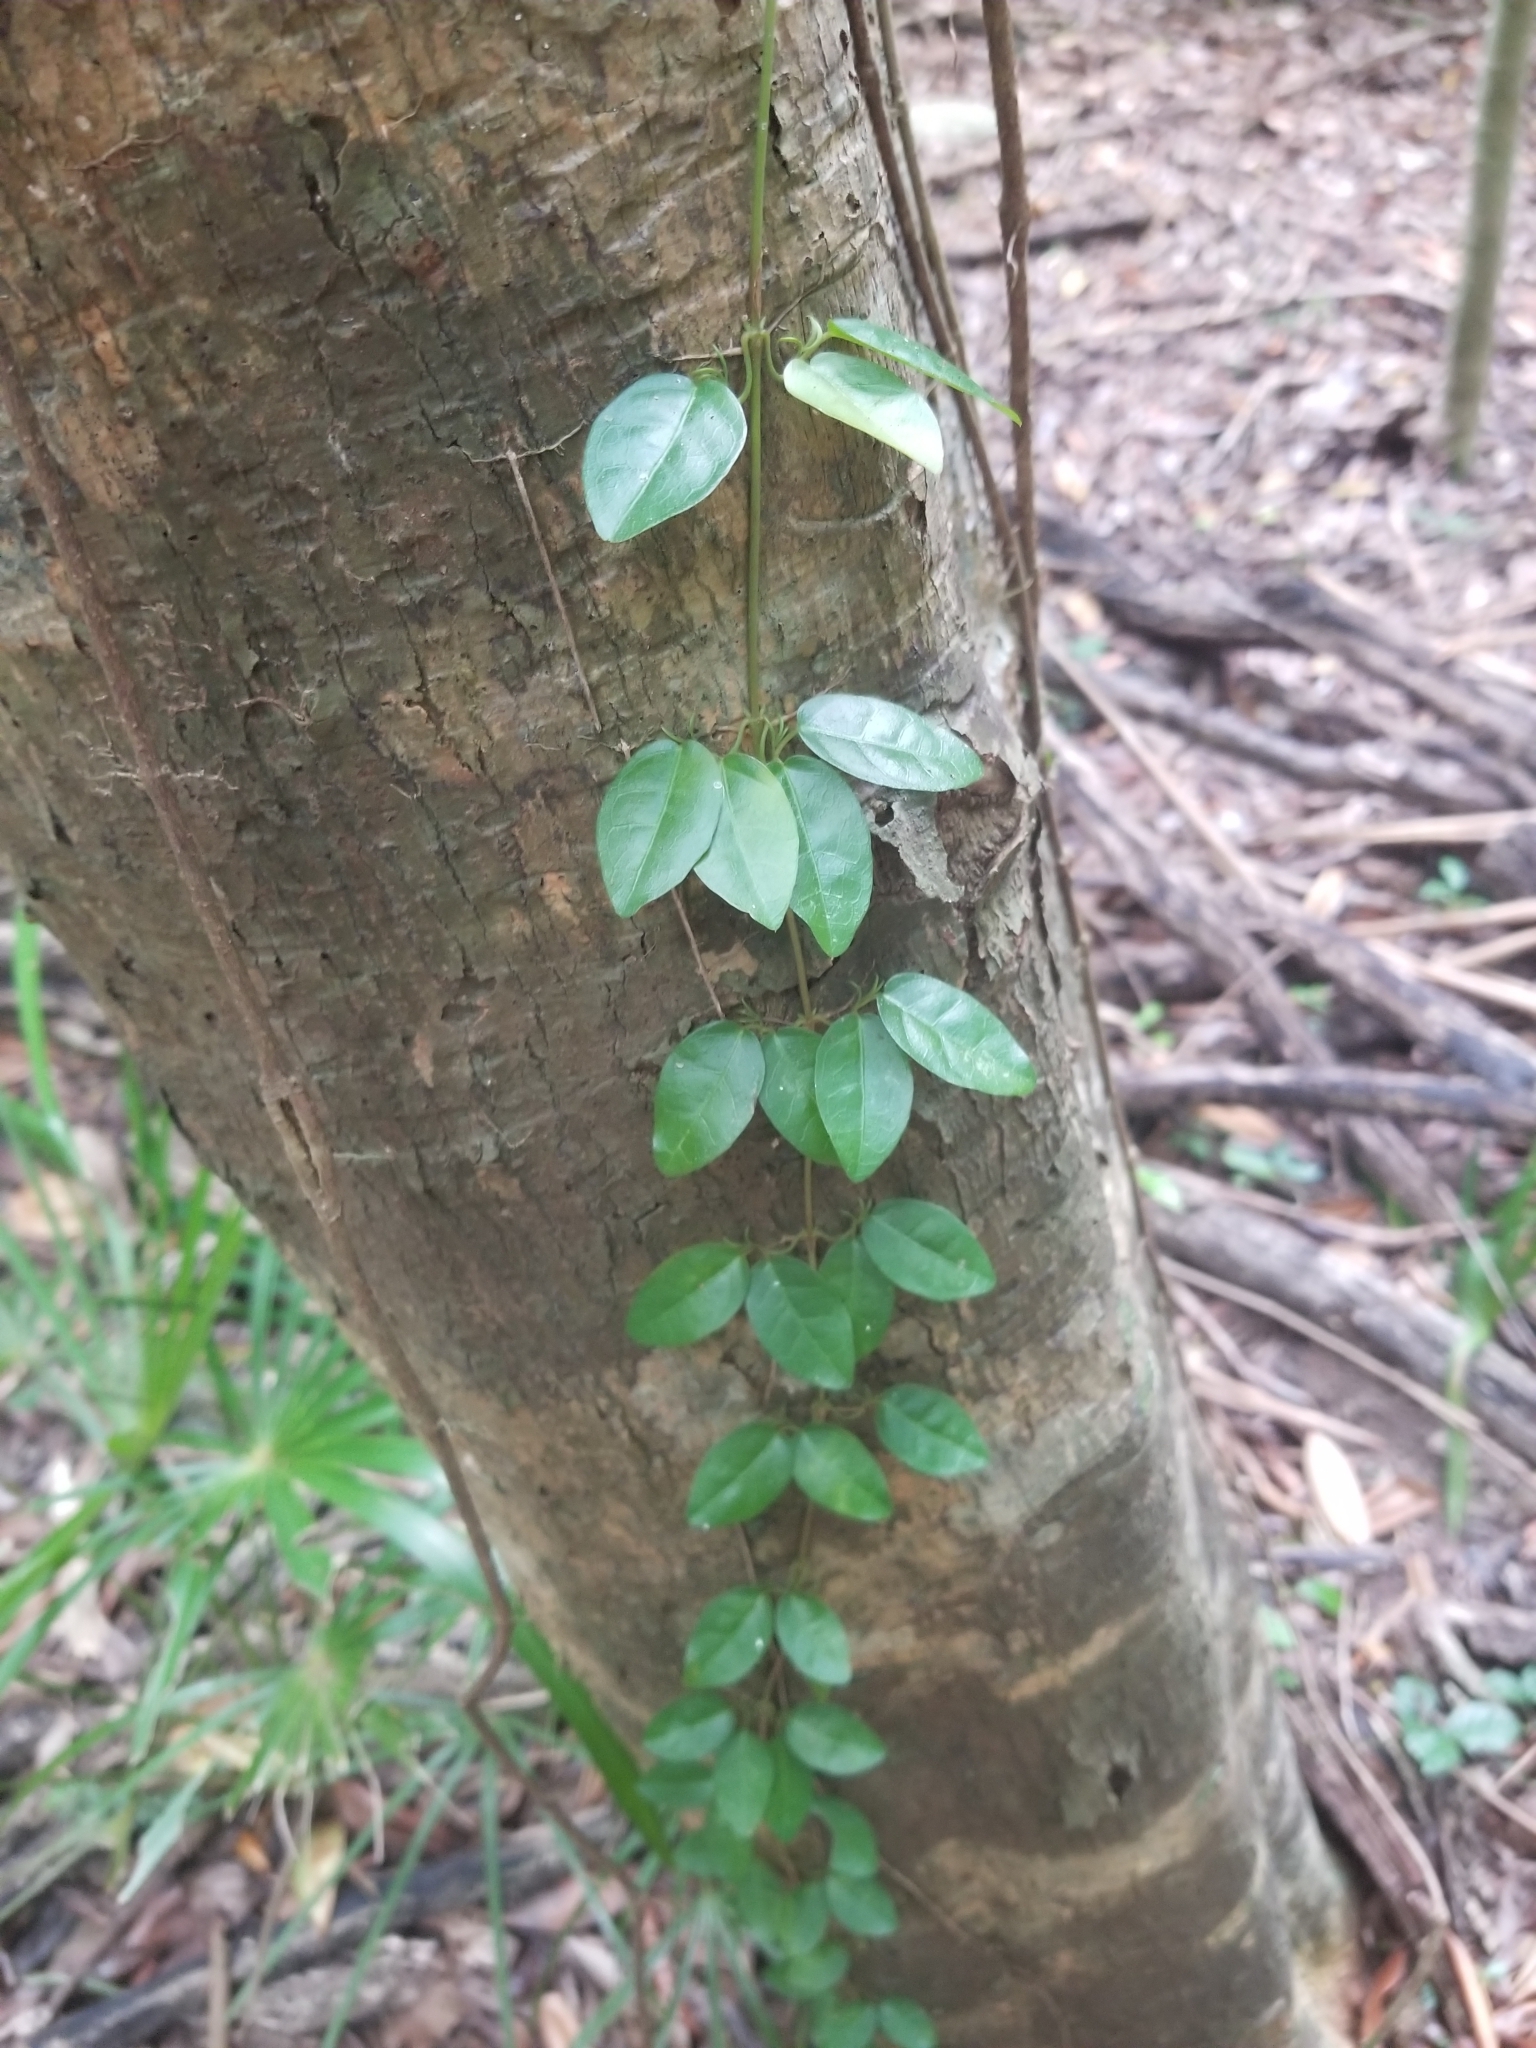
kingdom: Plantae
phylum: Tracheophyta
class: Magnoliopsida
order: Lamiales
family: Bignoniaceae
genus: Dolichandra
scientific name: Dolichandra unguis-cati
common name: Catclaw vine
